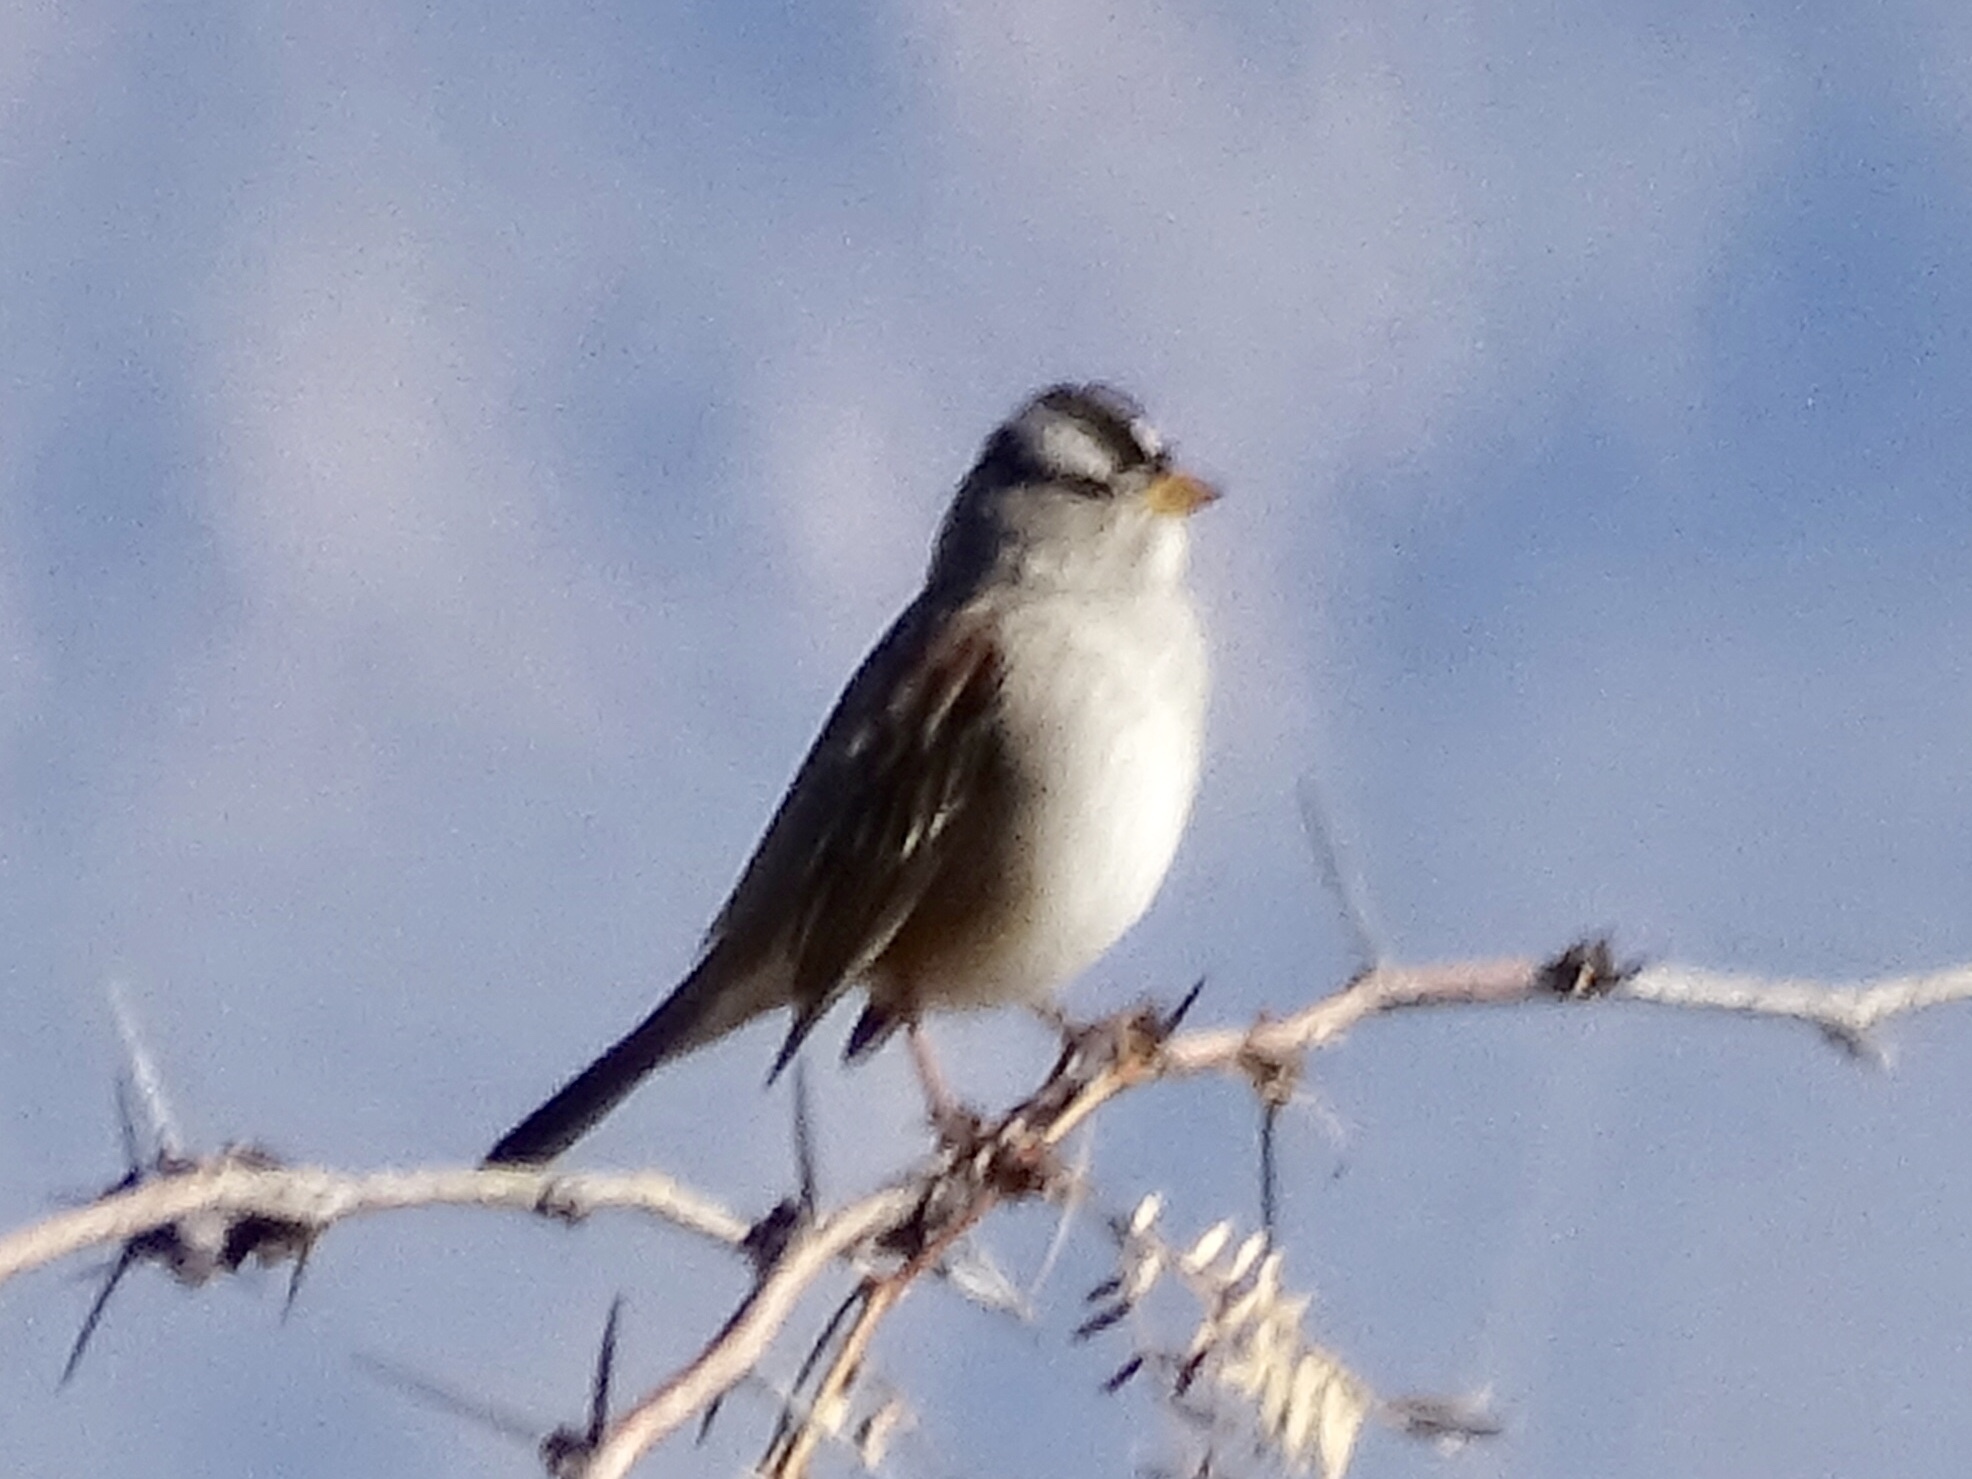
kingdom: Animalia
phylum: Chordata
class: Aves
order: Passeriformes
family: Passerellidae
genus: Zonotrichia
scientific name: Zonotrichia leucophrys
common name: White-crowned sparrow
